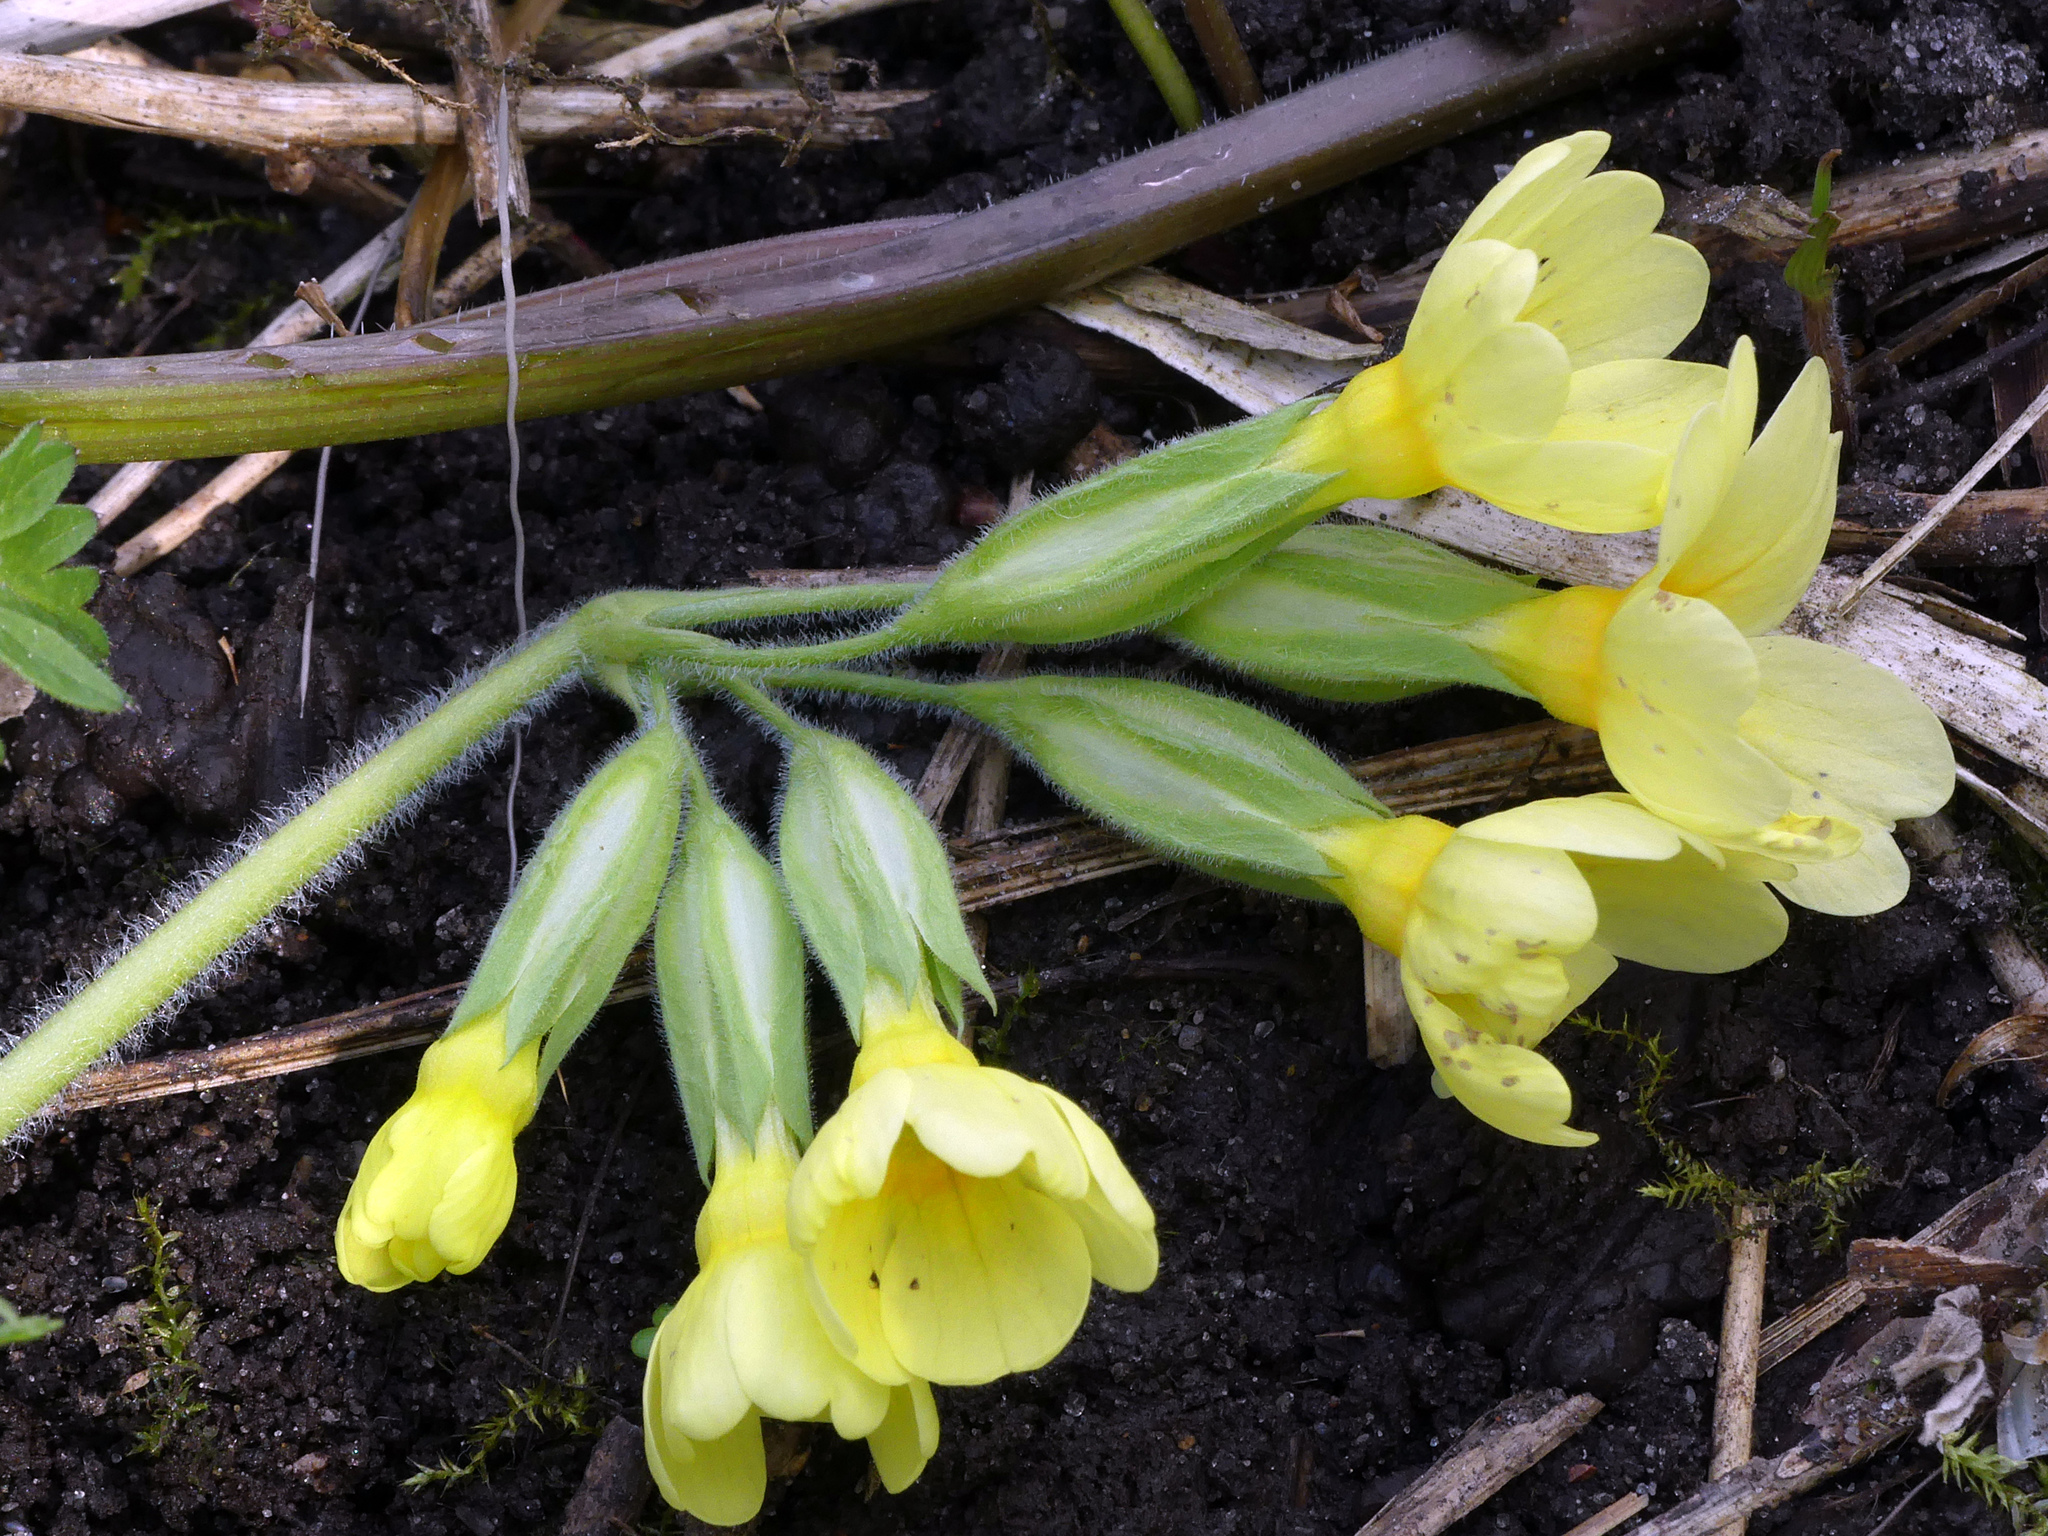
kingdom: Plantae
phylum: Tracheophyta
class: Magnoliopsida
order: Ericales
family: Primulaceae
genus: Primula
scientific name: Primula elatior
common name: Oxlip
